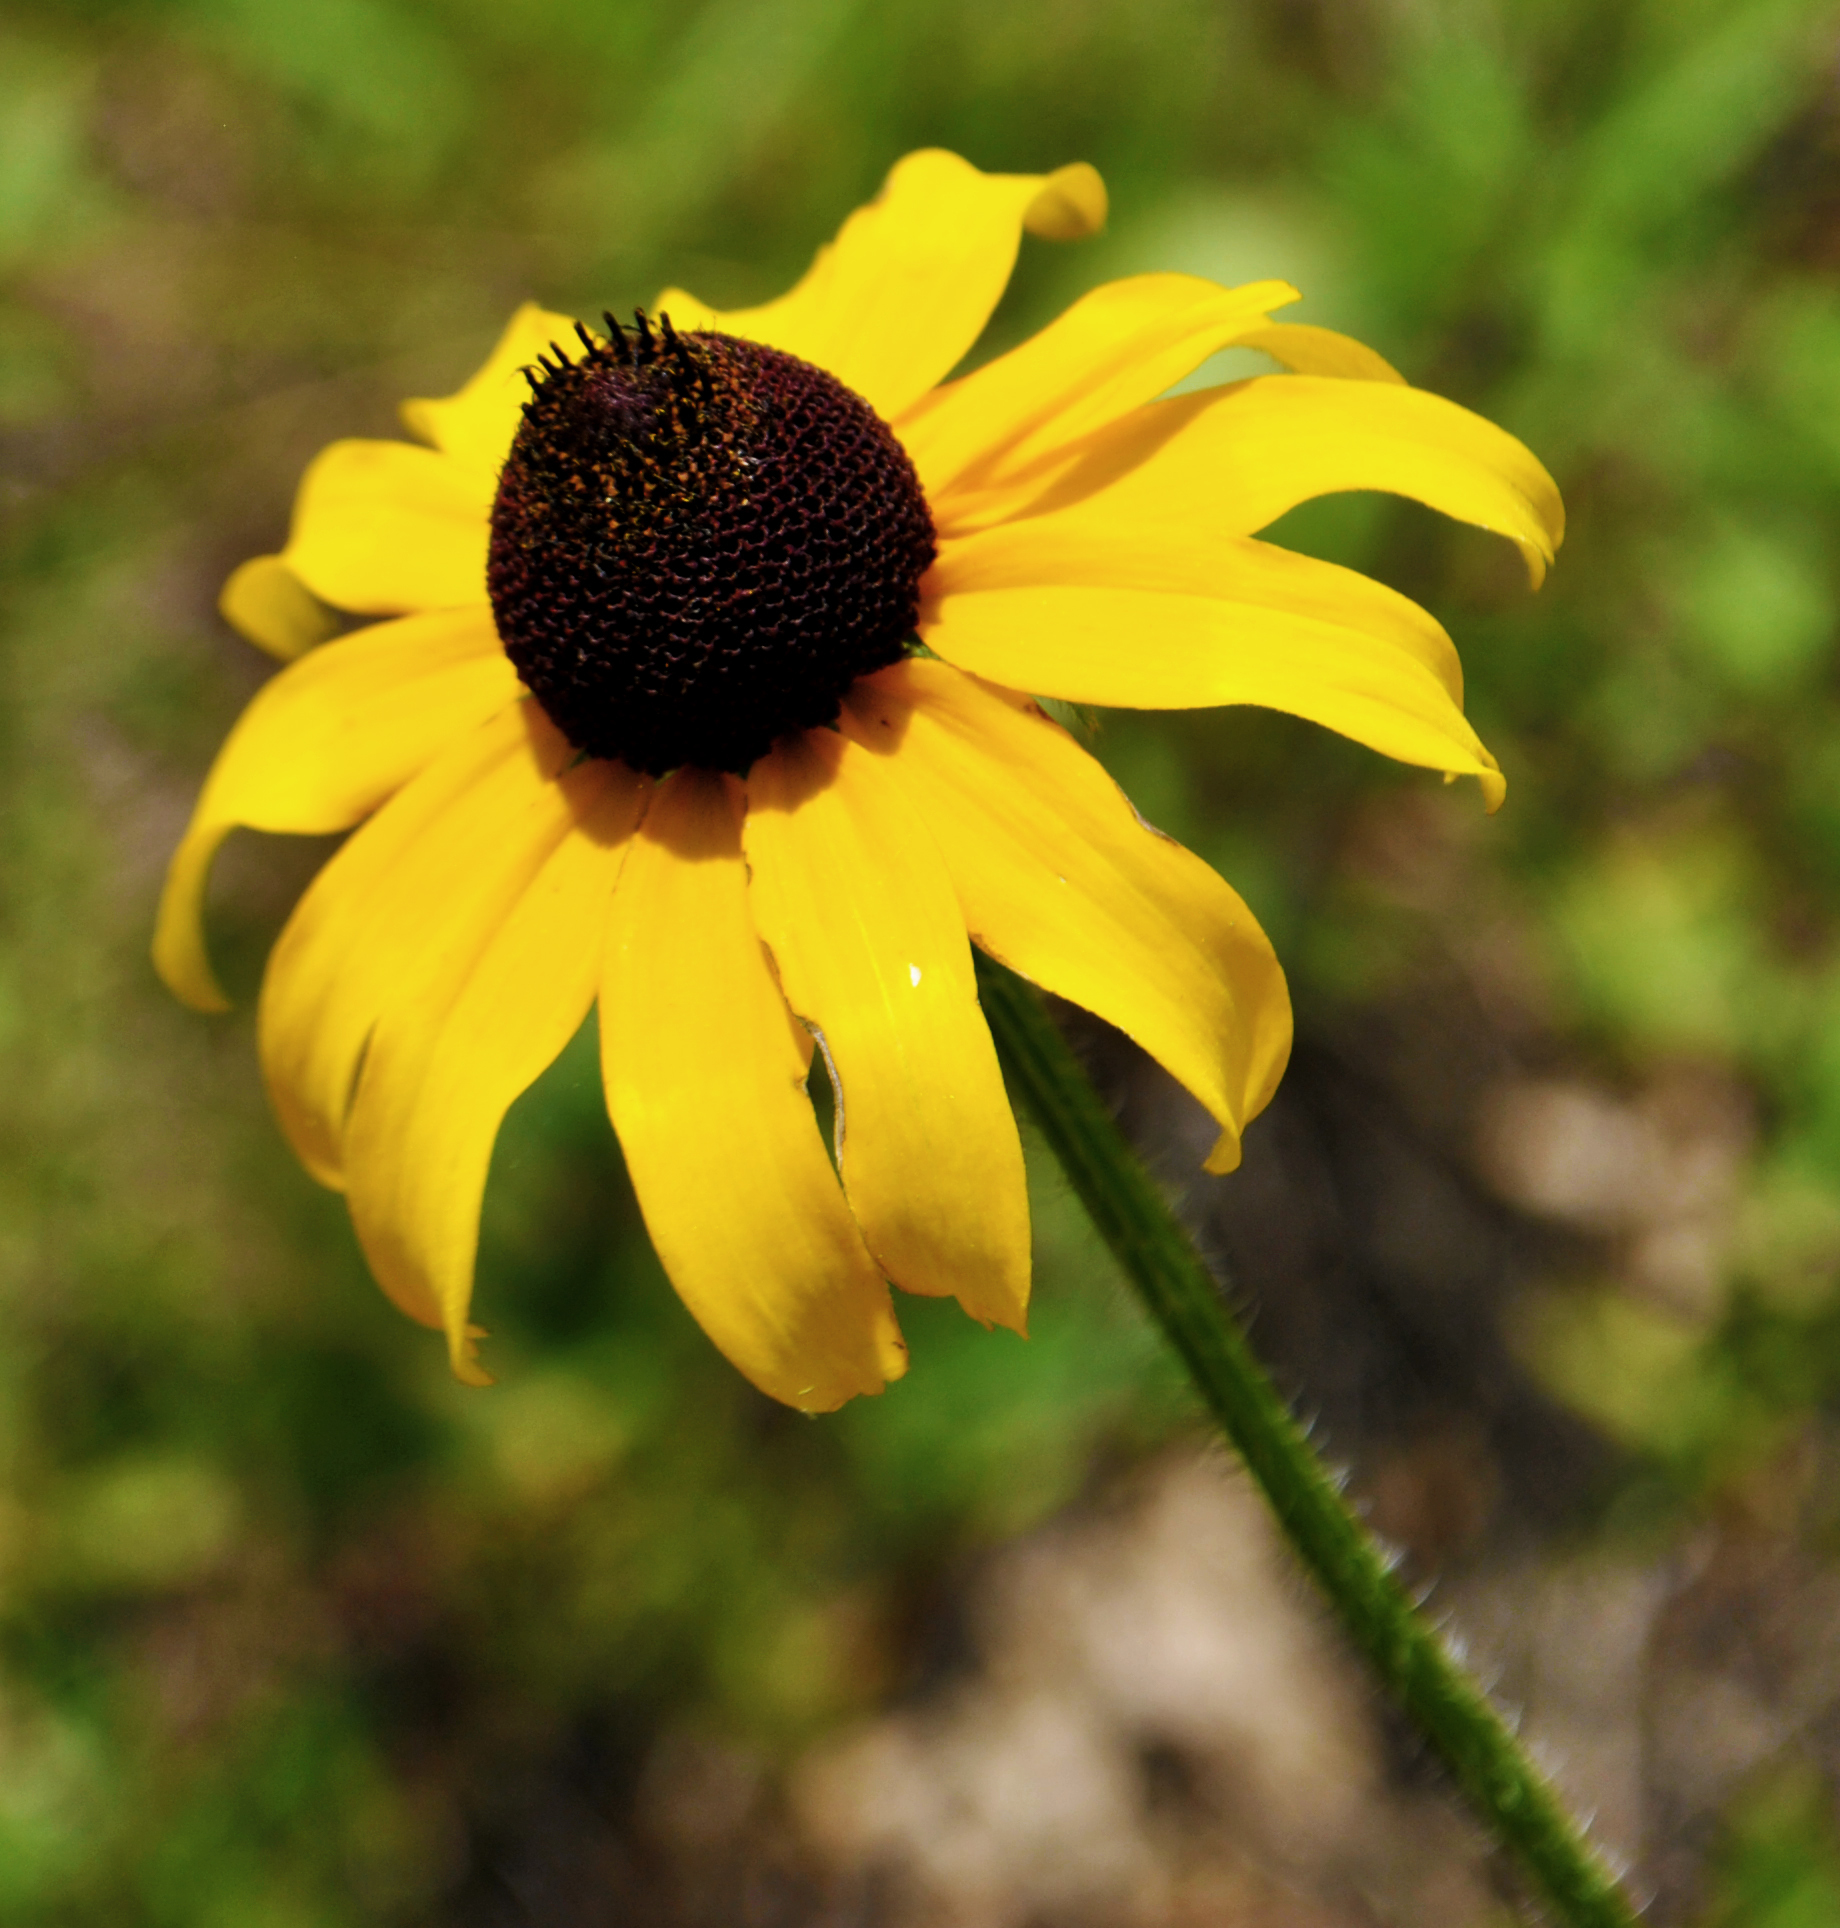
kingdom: Plantae
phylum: Tracheophyta
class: Magnoliopsida
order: Asterales
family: Asteraceae
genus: Rudbeckia
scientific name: Rudbeckia hirta
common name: Black-eyed-susan
